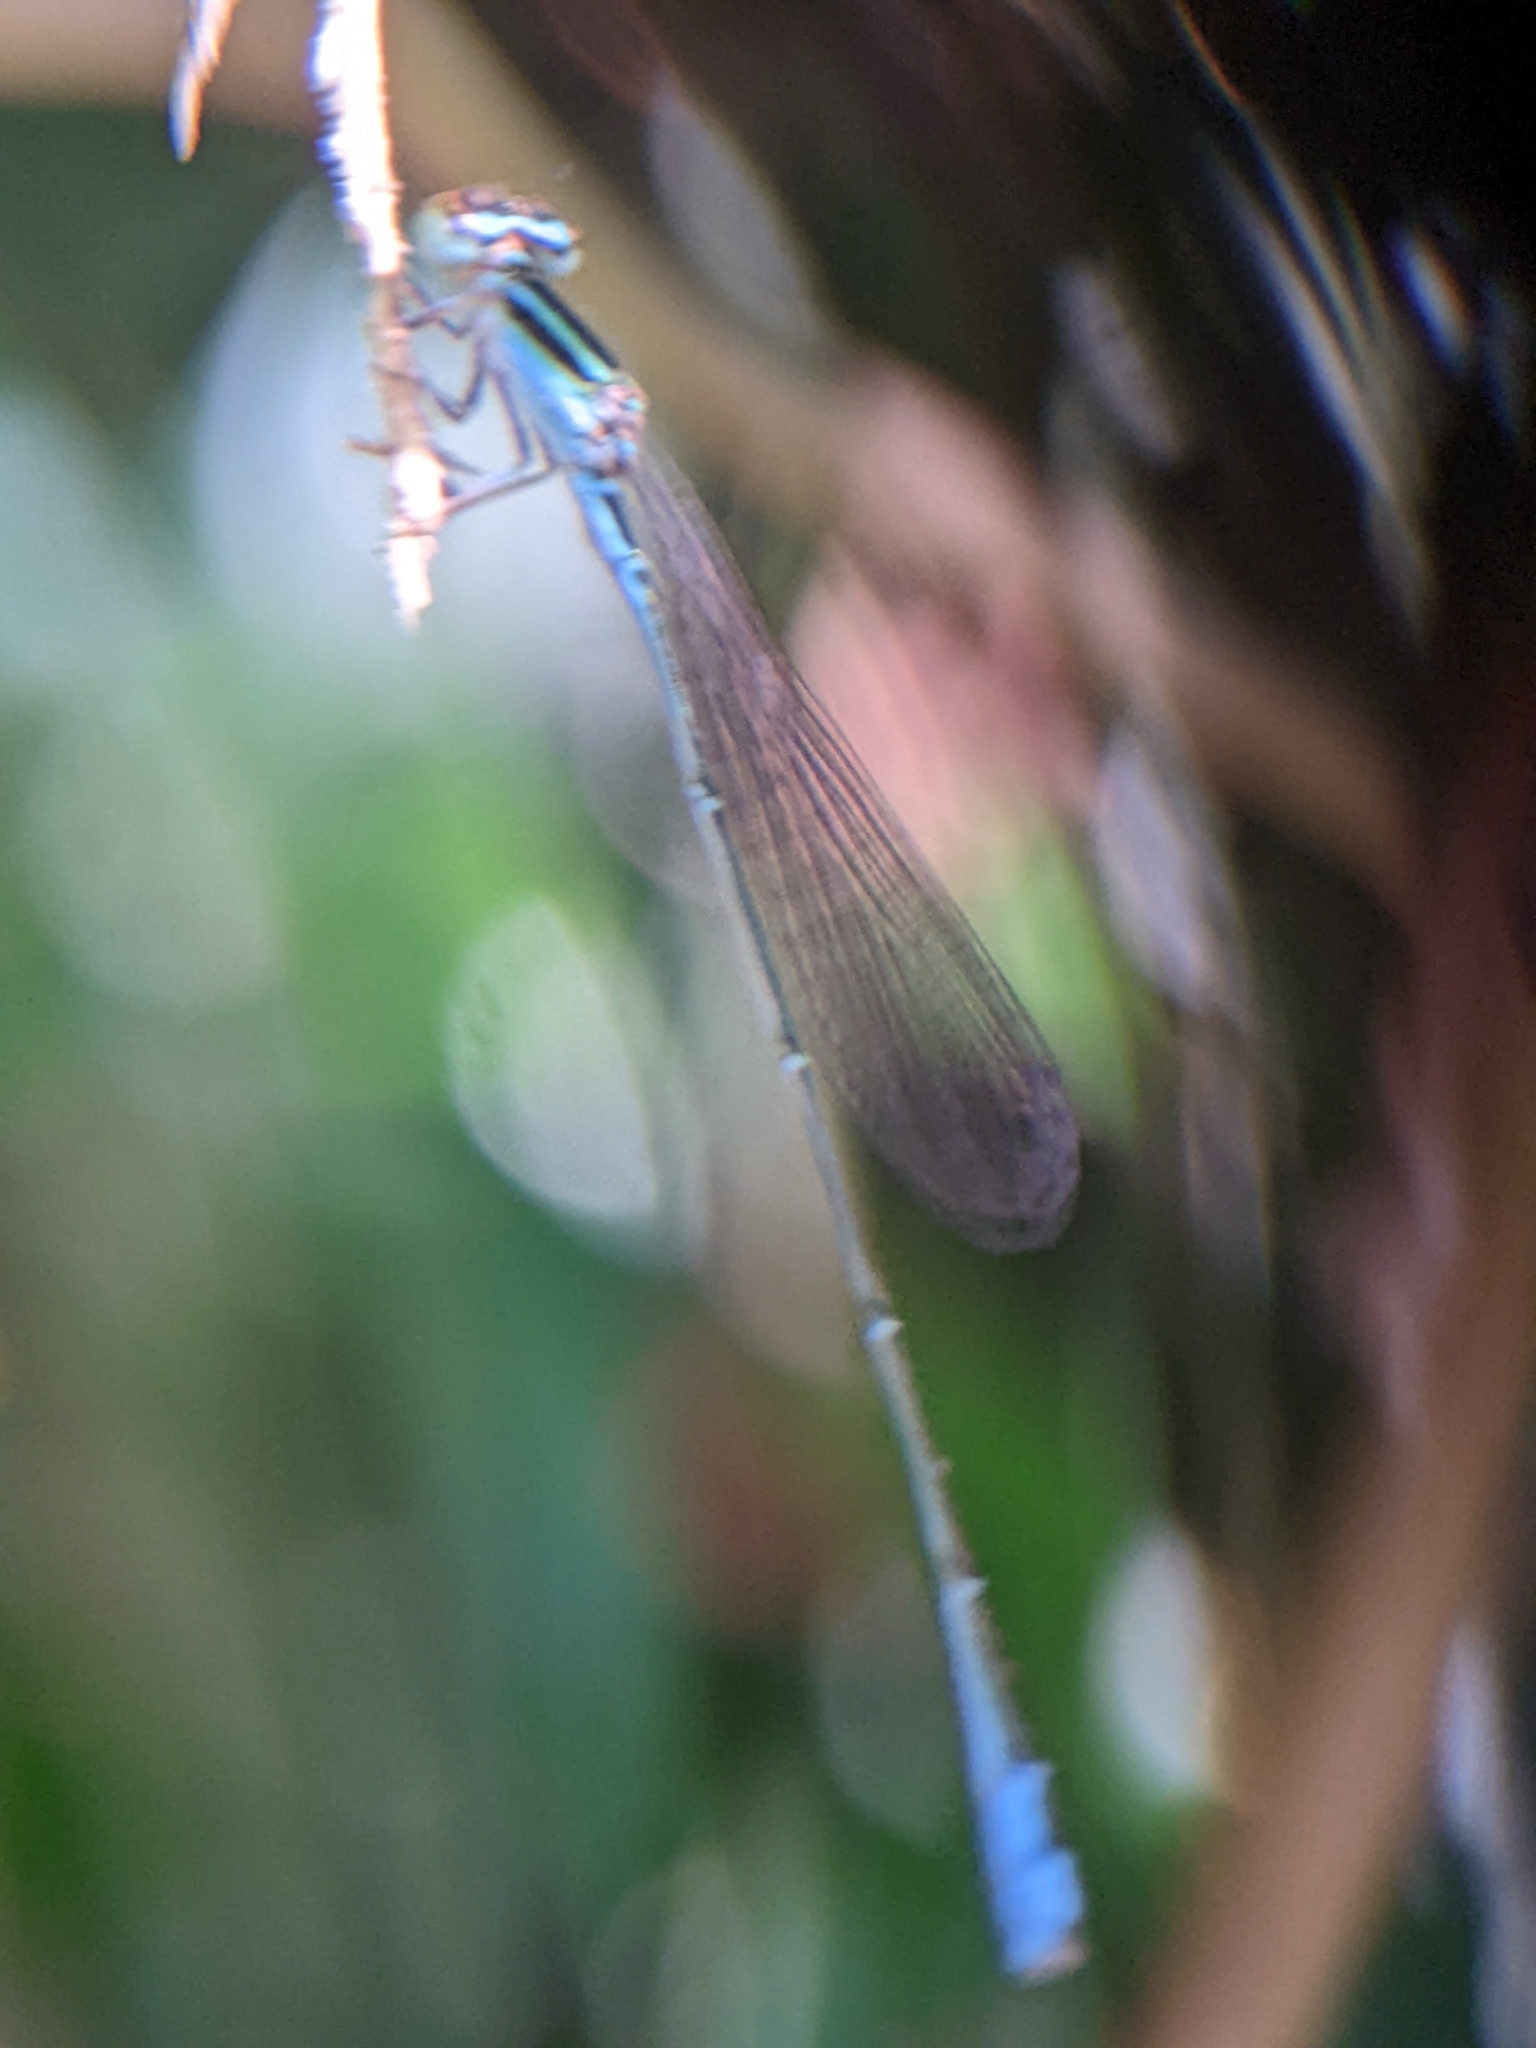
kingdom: Animalia
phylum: Arthropoda
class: Insecta
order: Odonata
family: Coenagrionidae
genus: Aciagrion
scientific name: Aciagrion borneense
